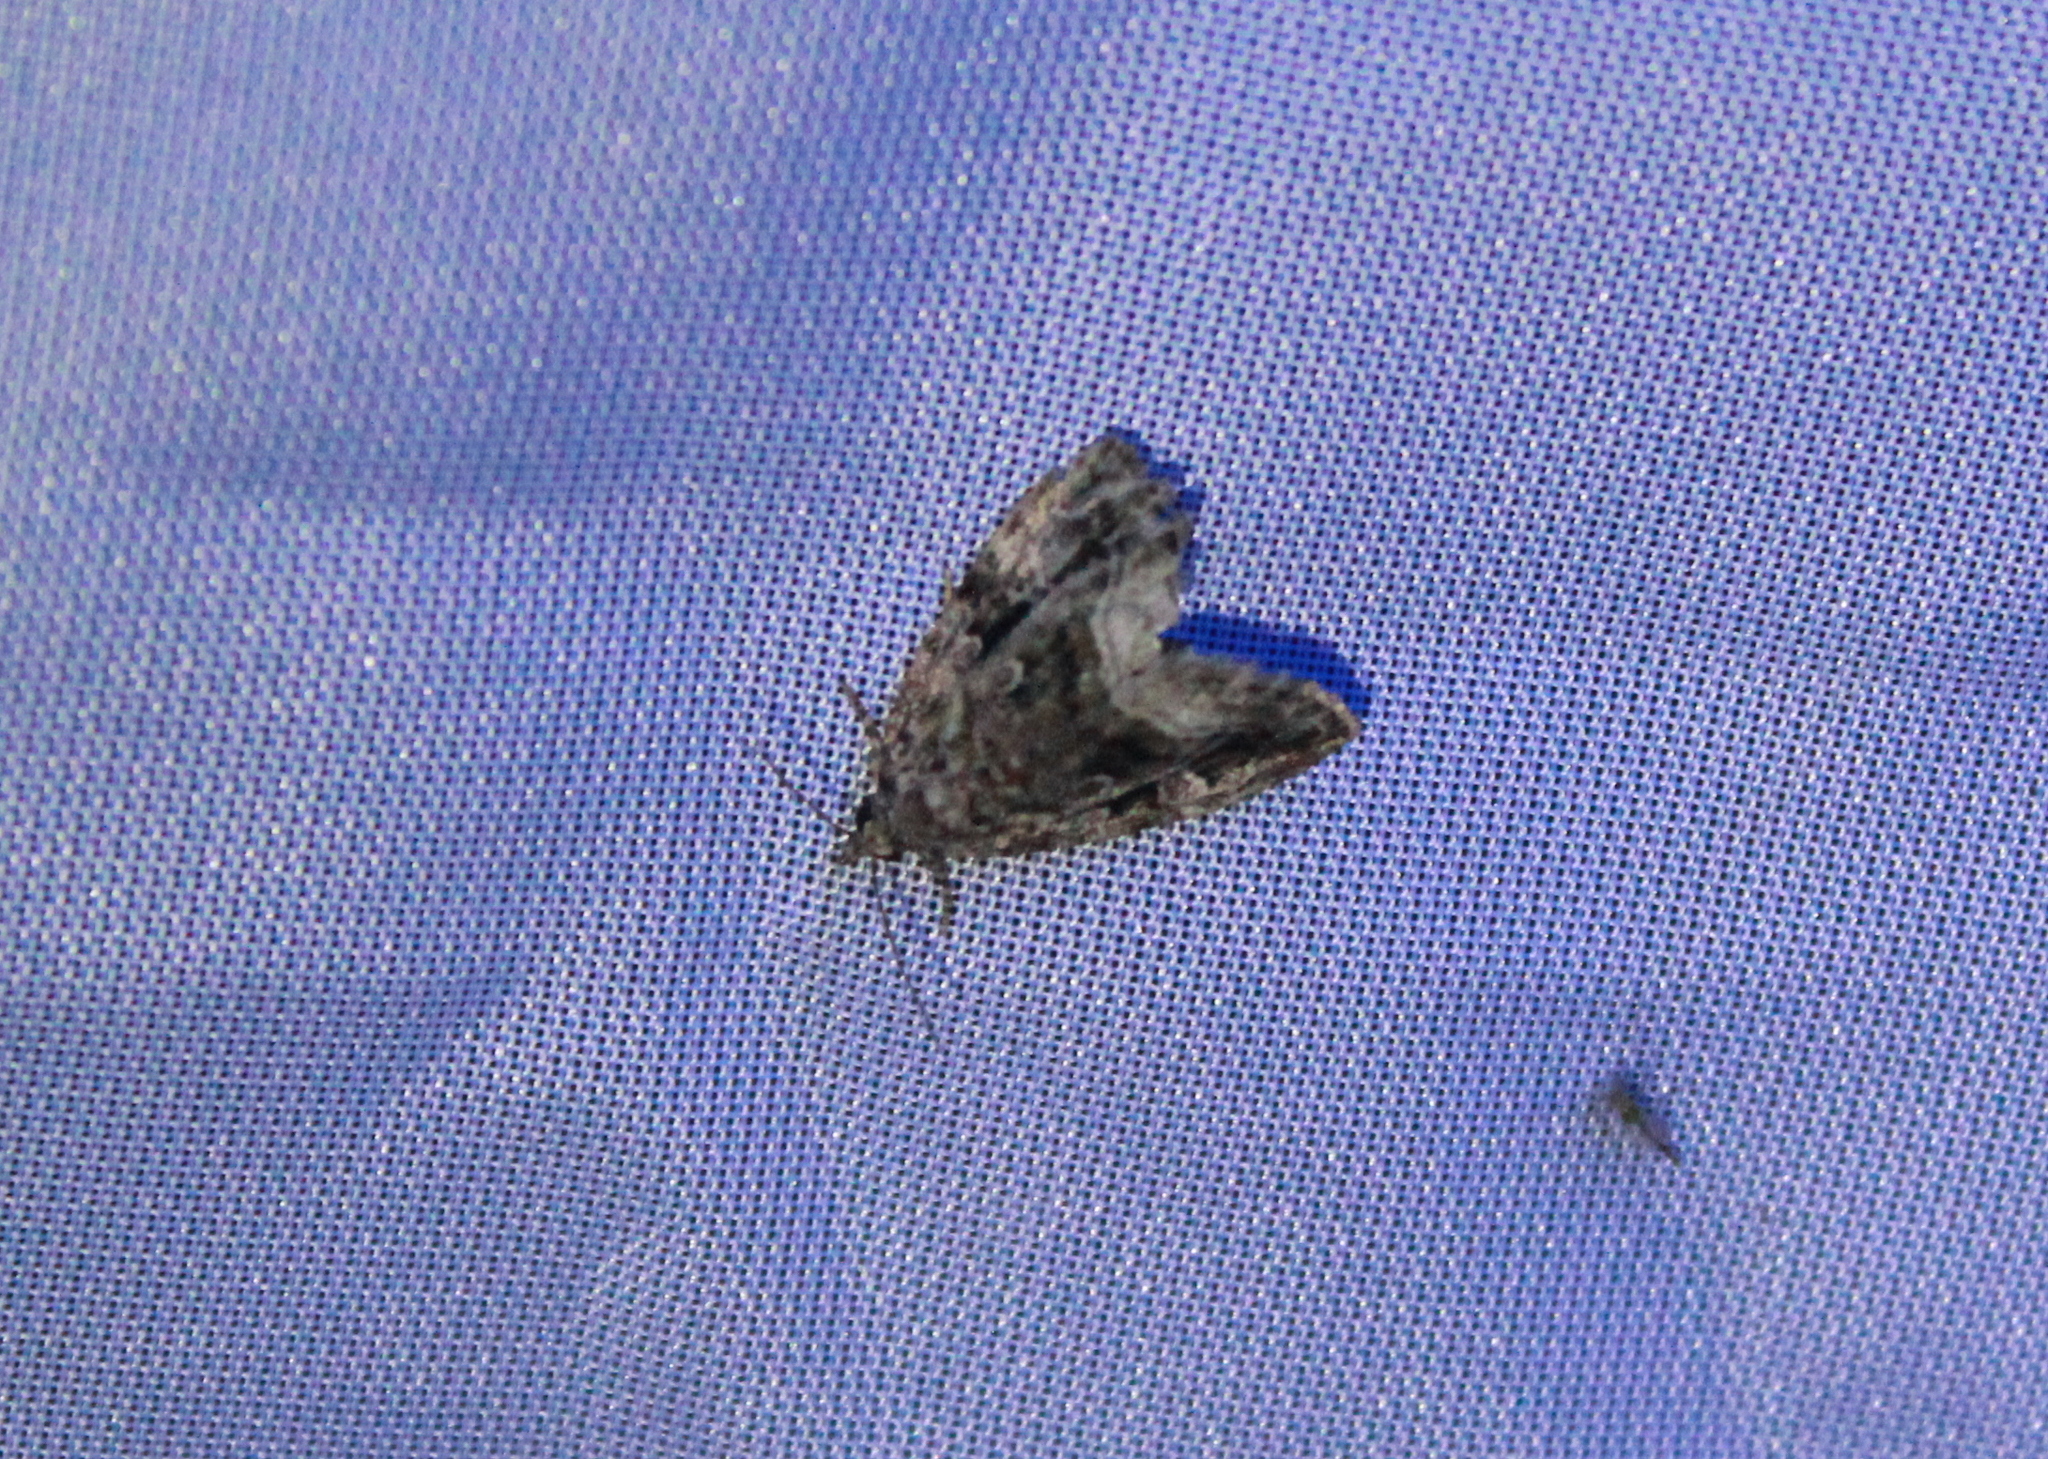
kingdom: Animalia
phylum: Arthropoda
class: Insecta
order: Lepidoptera
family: Noctuidae
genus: Protodeltote
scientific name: Protodeltote muscosula
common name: Large mossy glyph
